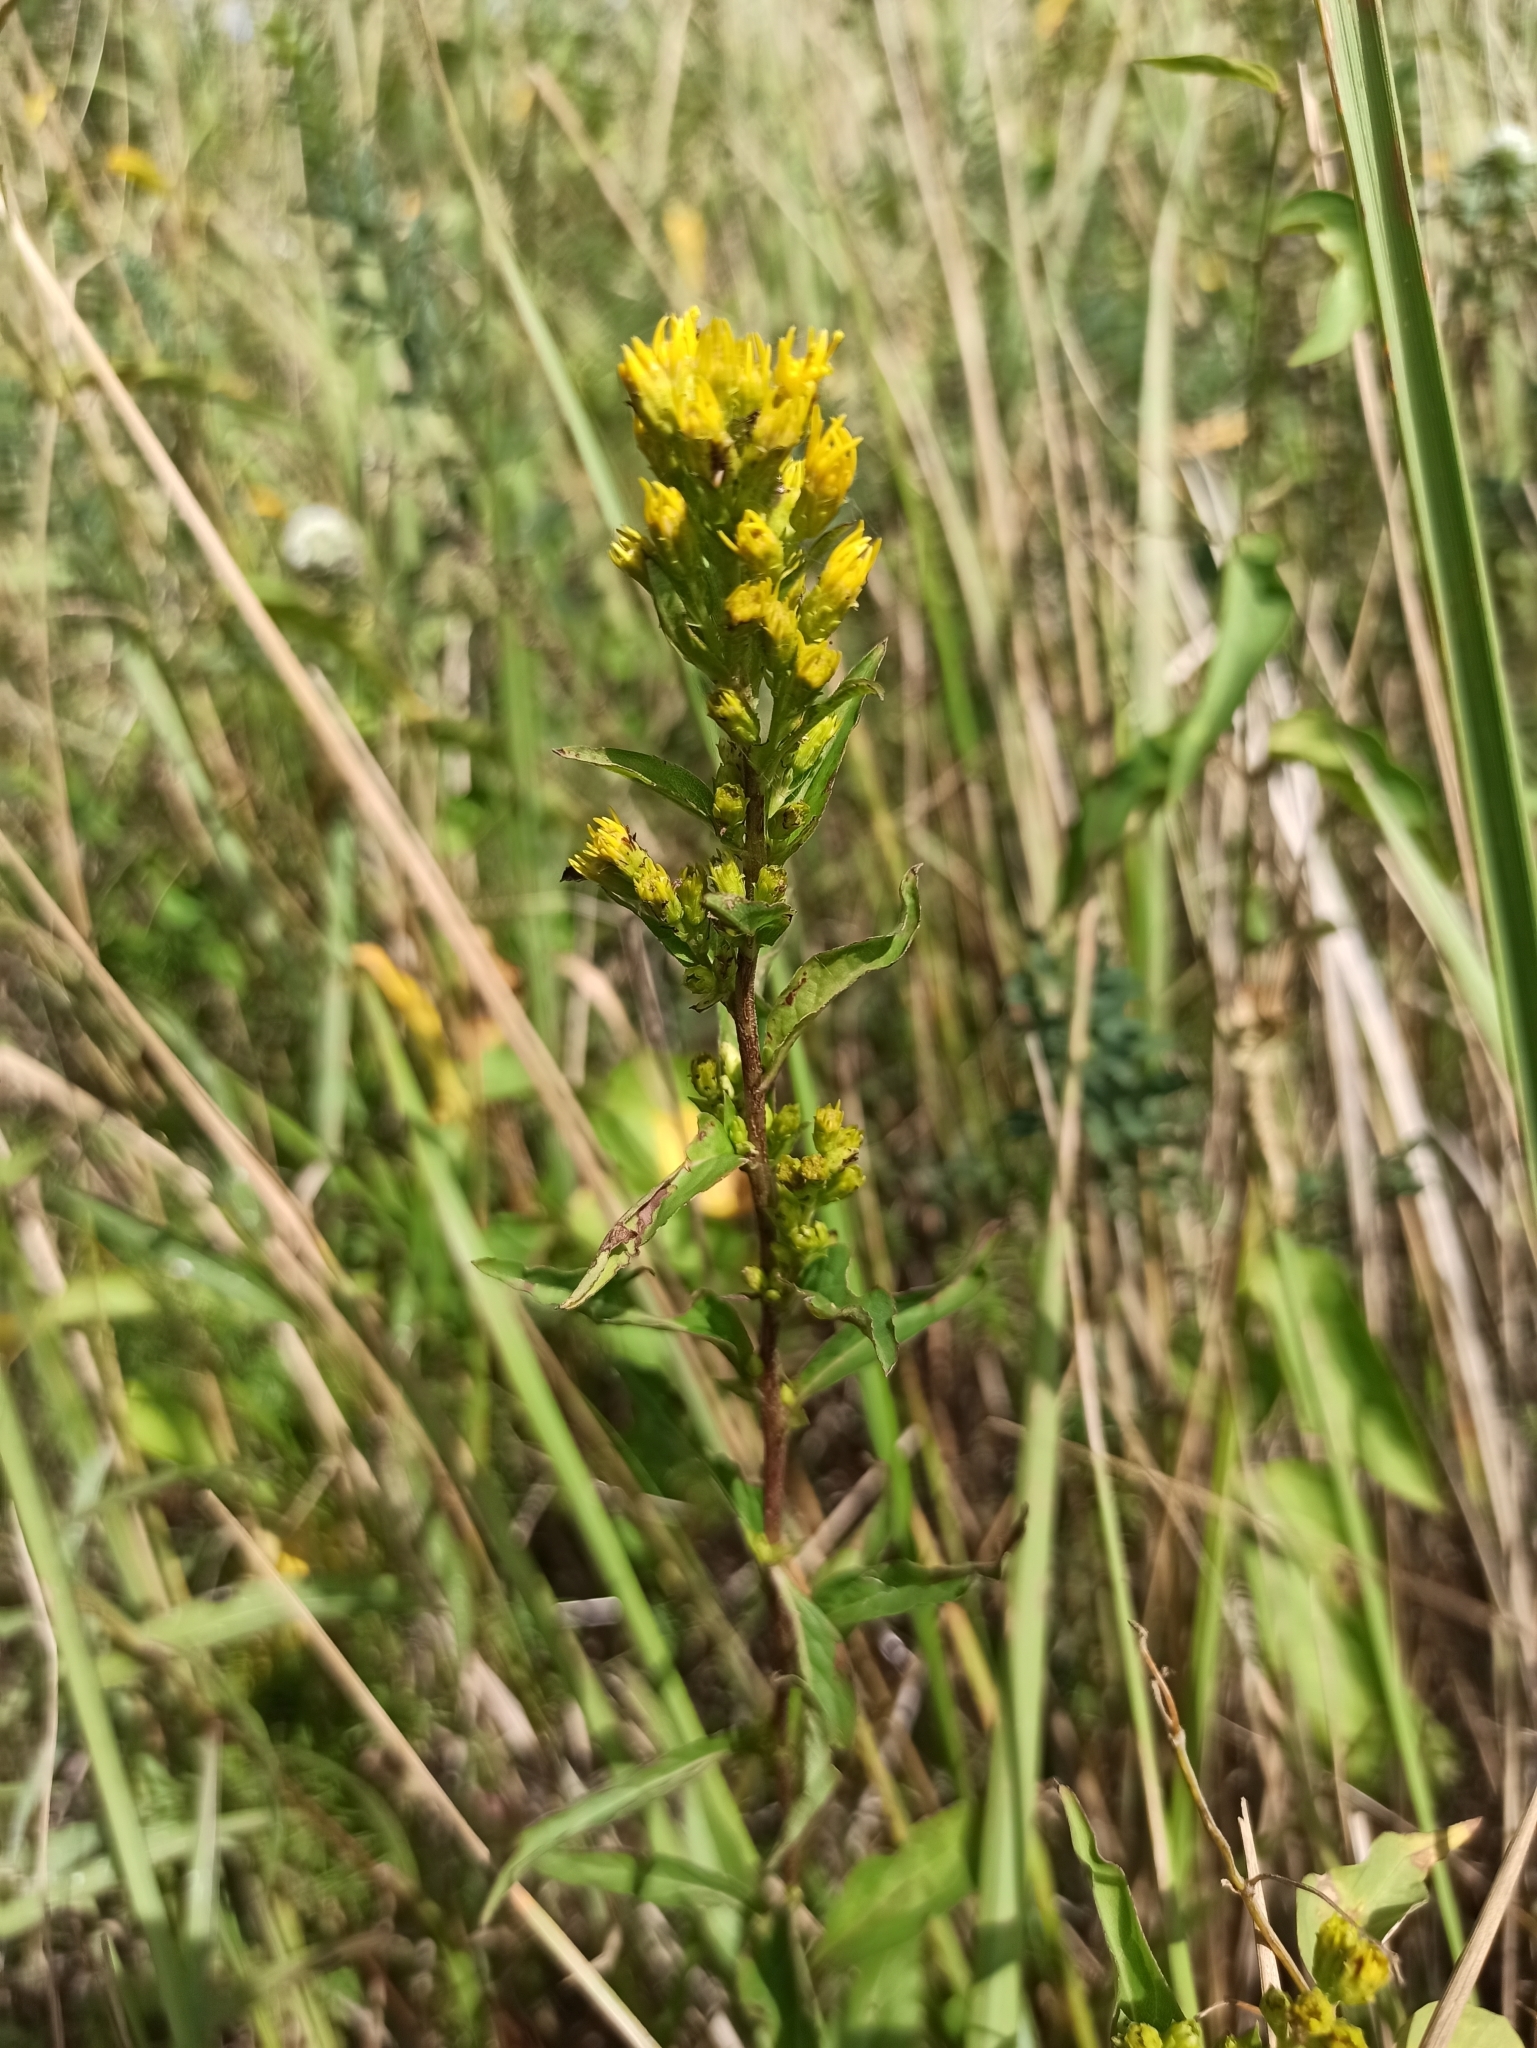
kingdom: Plantae
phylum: Tracheophyta
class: Magnoliopsida
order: Asterales
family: Asteraceae
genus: Solidago
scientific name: Solidago virgaurea
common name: Goldenrod
